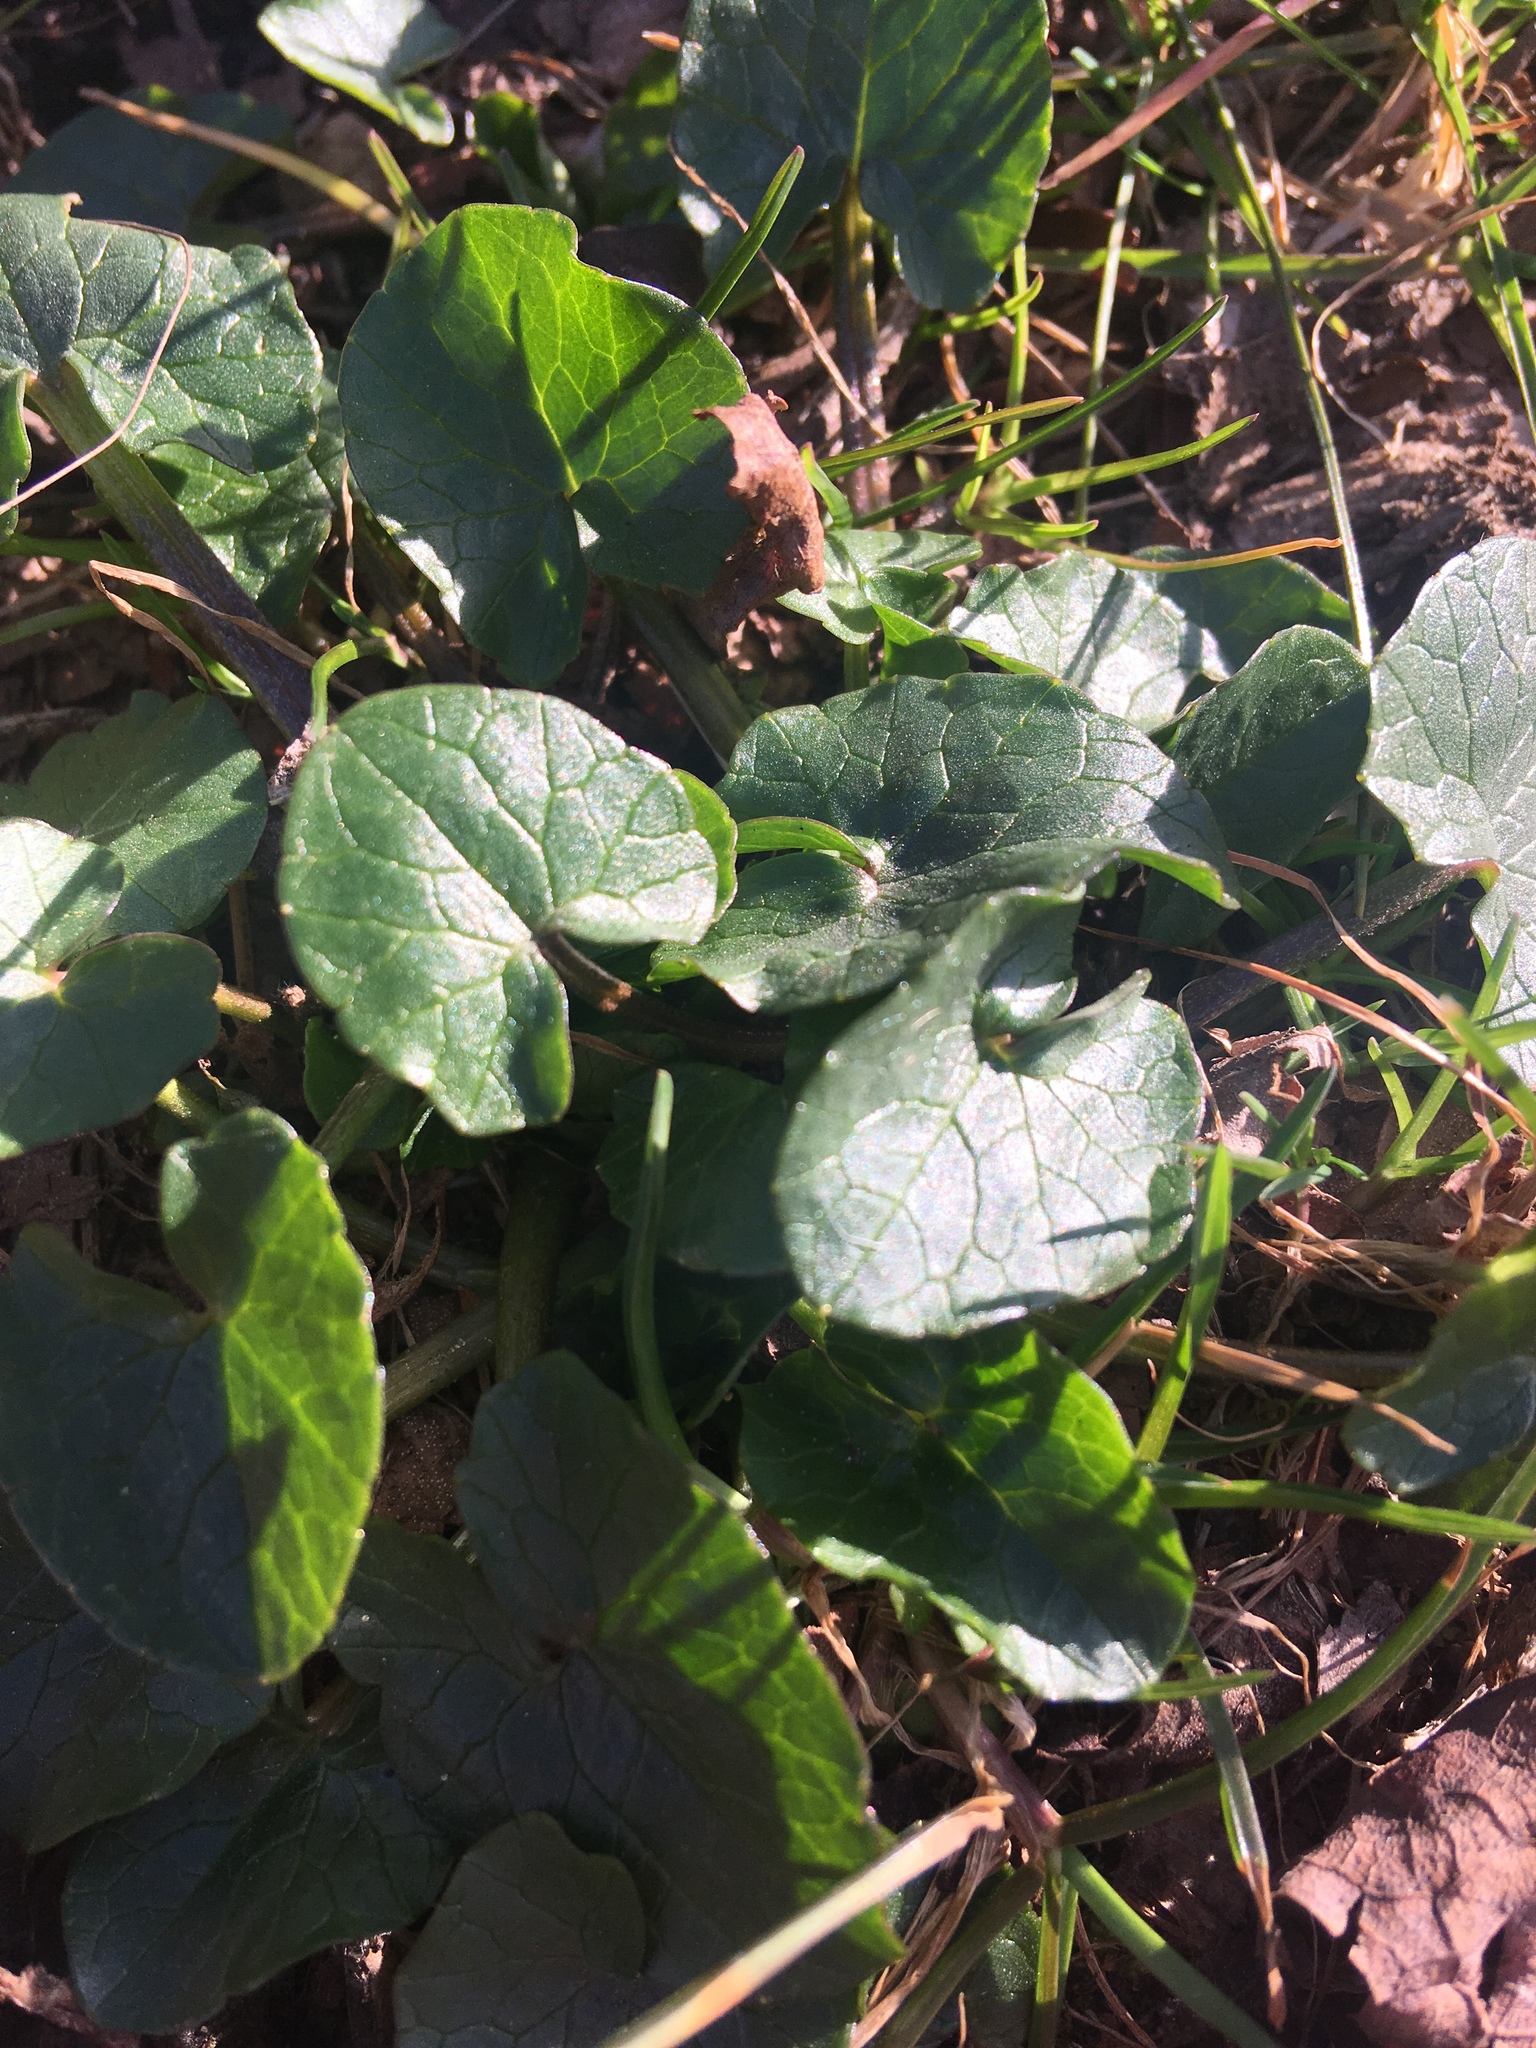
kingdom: Plantae
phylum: Tracheophyta
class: Magnoliopsida
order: Ranunculales
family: Ranunculaceae
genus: Ficaria
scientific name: Ficaria verna
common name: Lesser celandine
